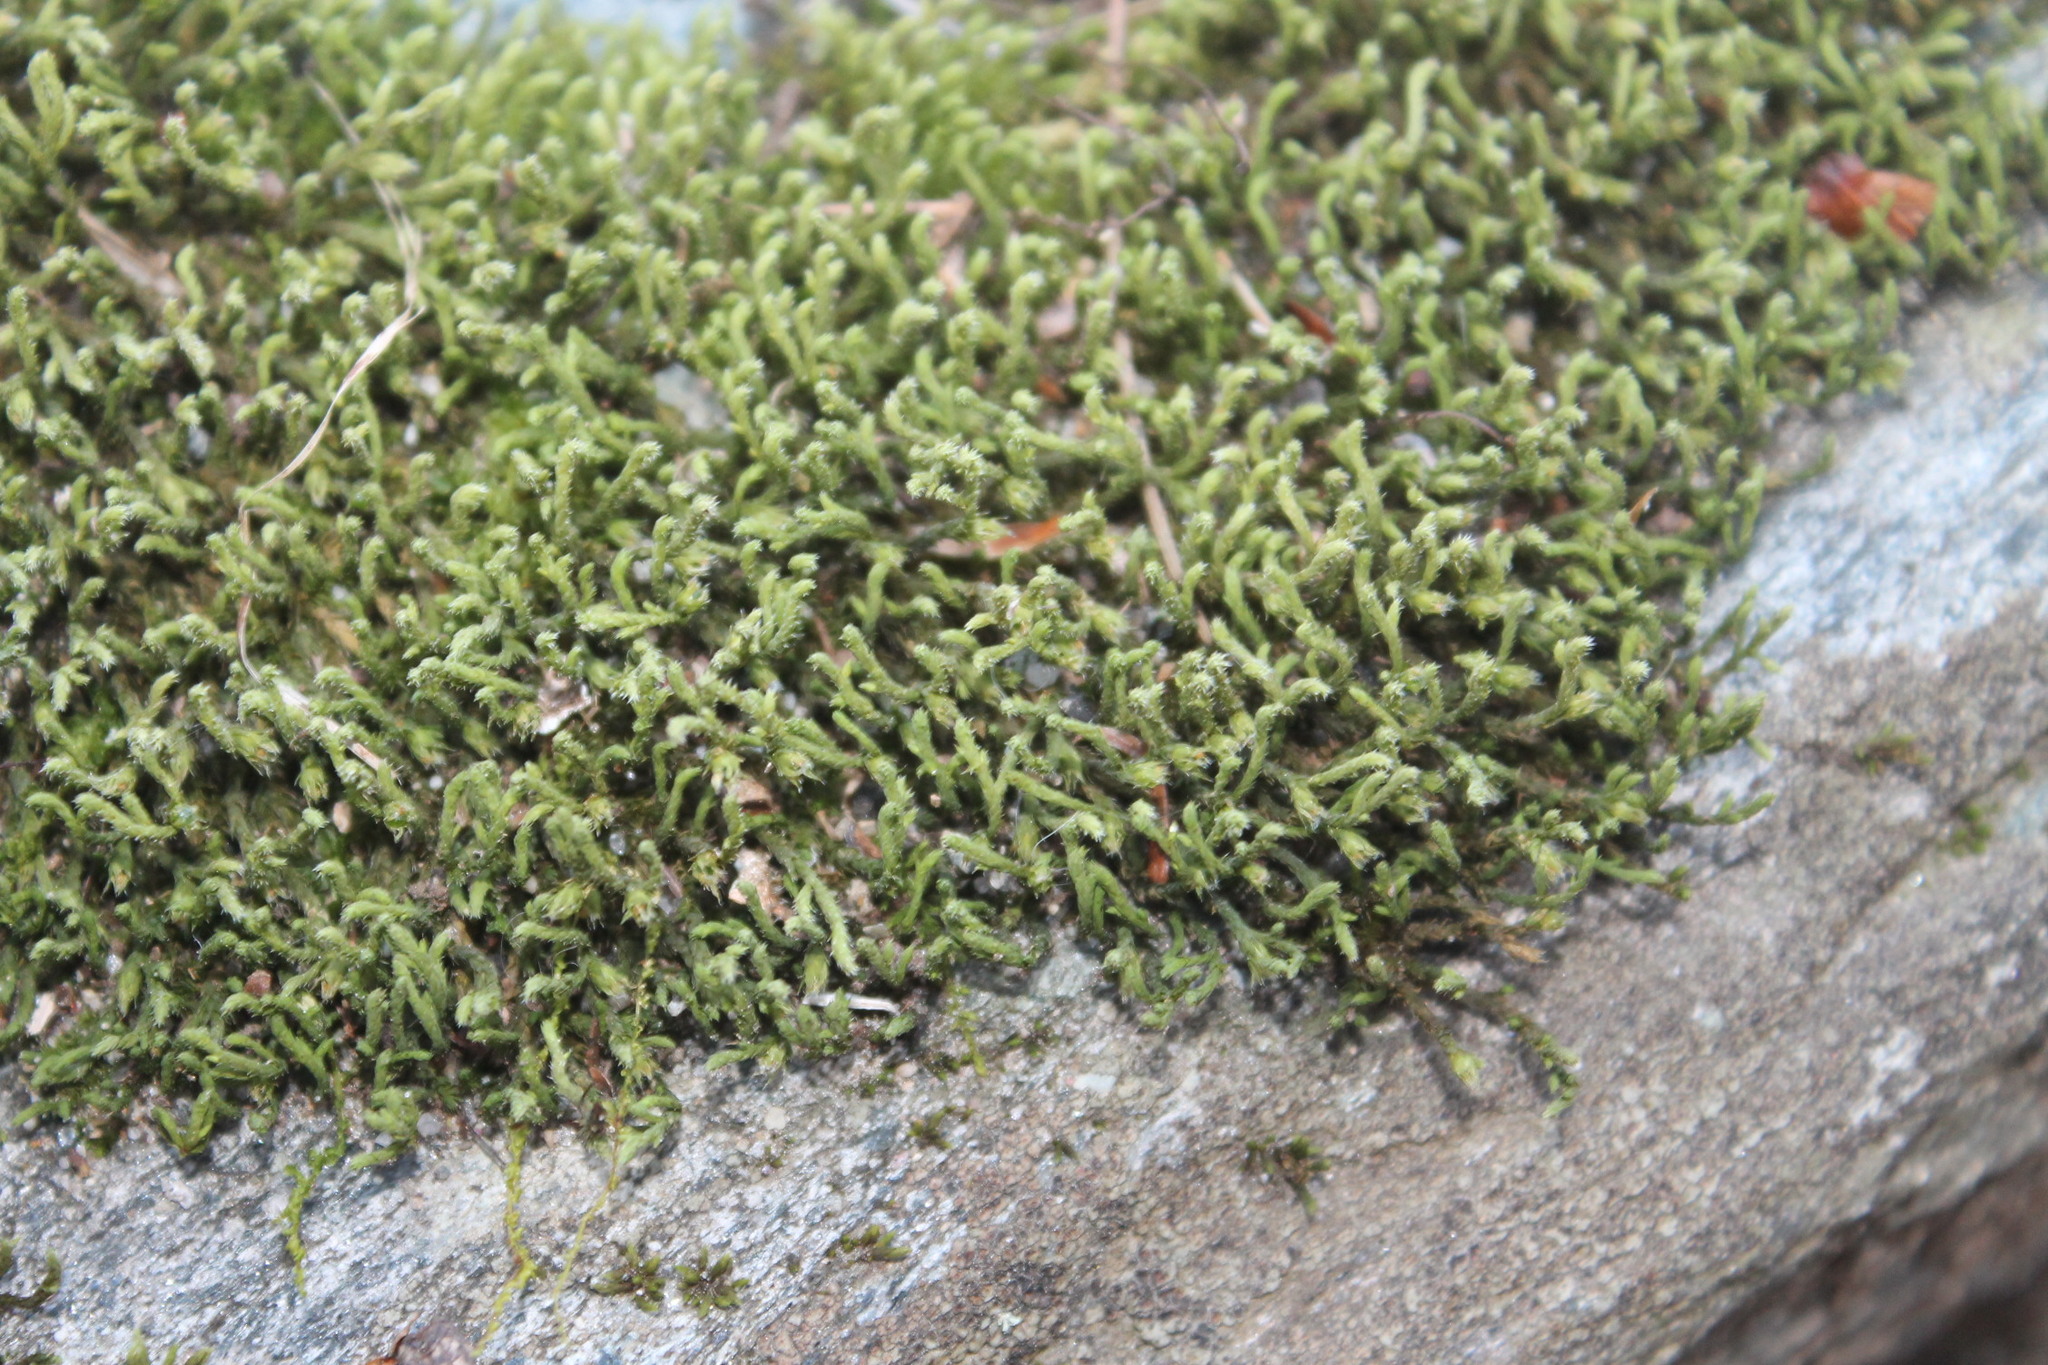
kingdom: Plantae
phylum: Bryophyta
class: Bryopsida
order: Hedwigiales
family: Hedwigiaceae
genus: Hedwigia
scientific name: Hedwigia ciliata
